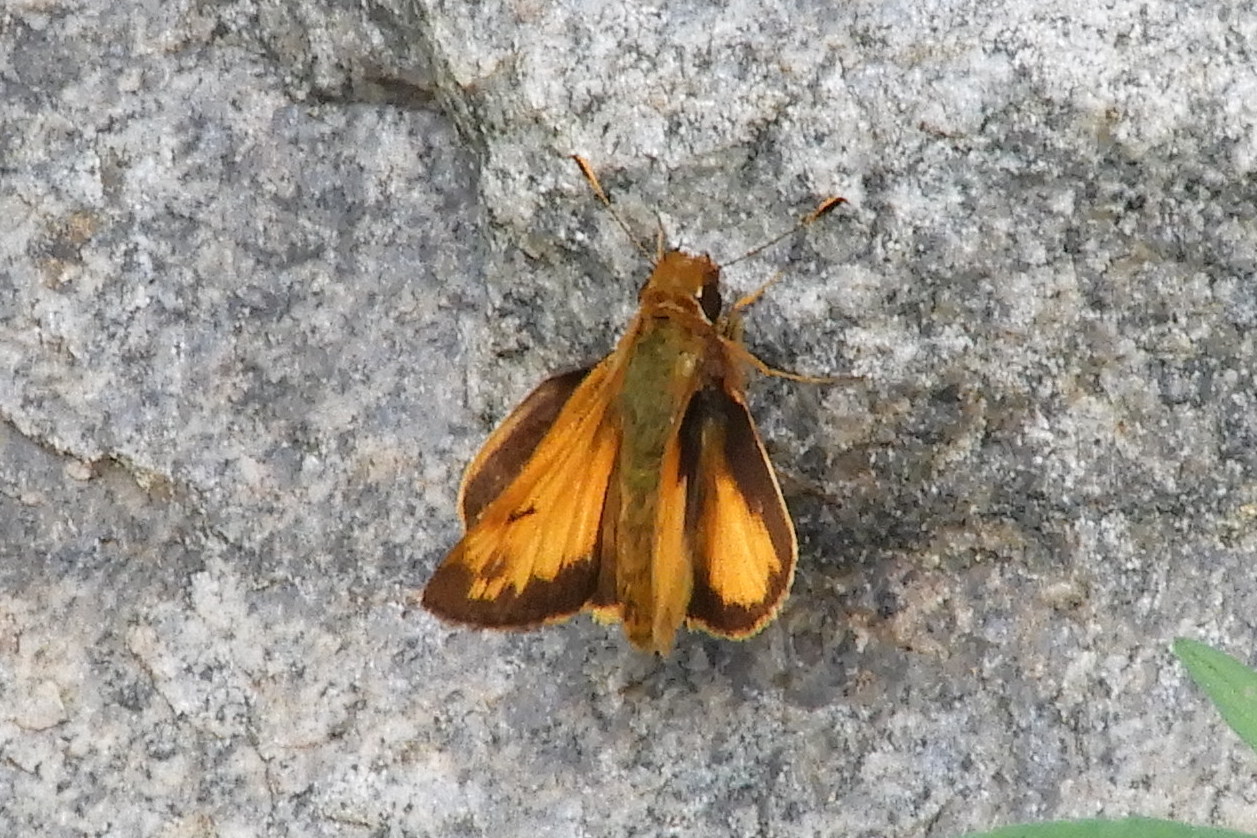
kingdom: Animalia
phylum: Arthropoda
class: Insecta
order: Lepidoptera
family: Hesperiidae
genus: Lon
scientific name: Lon zabulon
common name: Zabulon skipper
